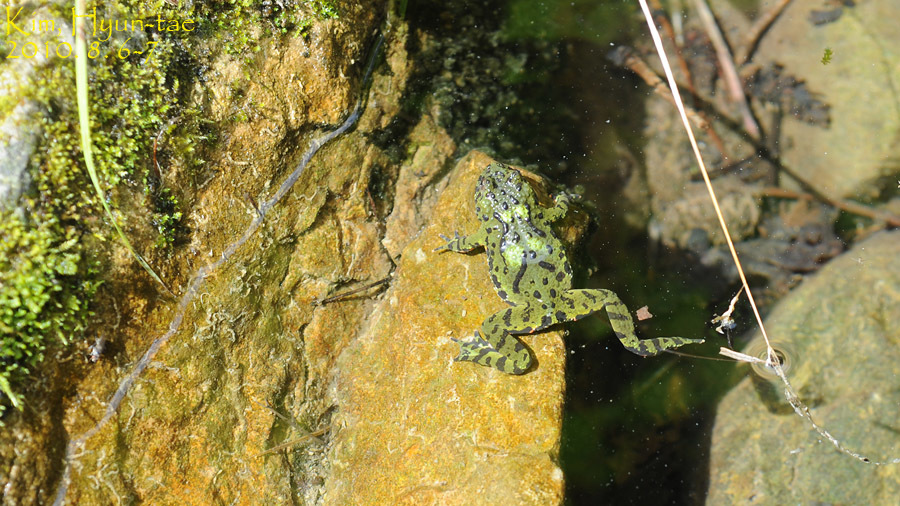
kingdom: Animalia
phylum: Chordata
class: Amphibia
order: Anura
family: Bombinatoridae
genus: Bombina
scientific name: Bombina orientalis
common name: Oriental firebelly toad
